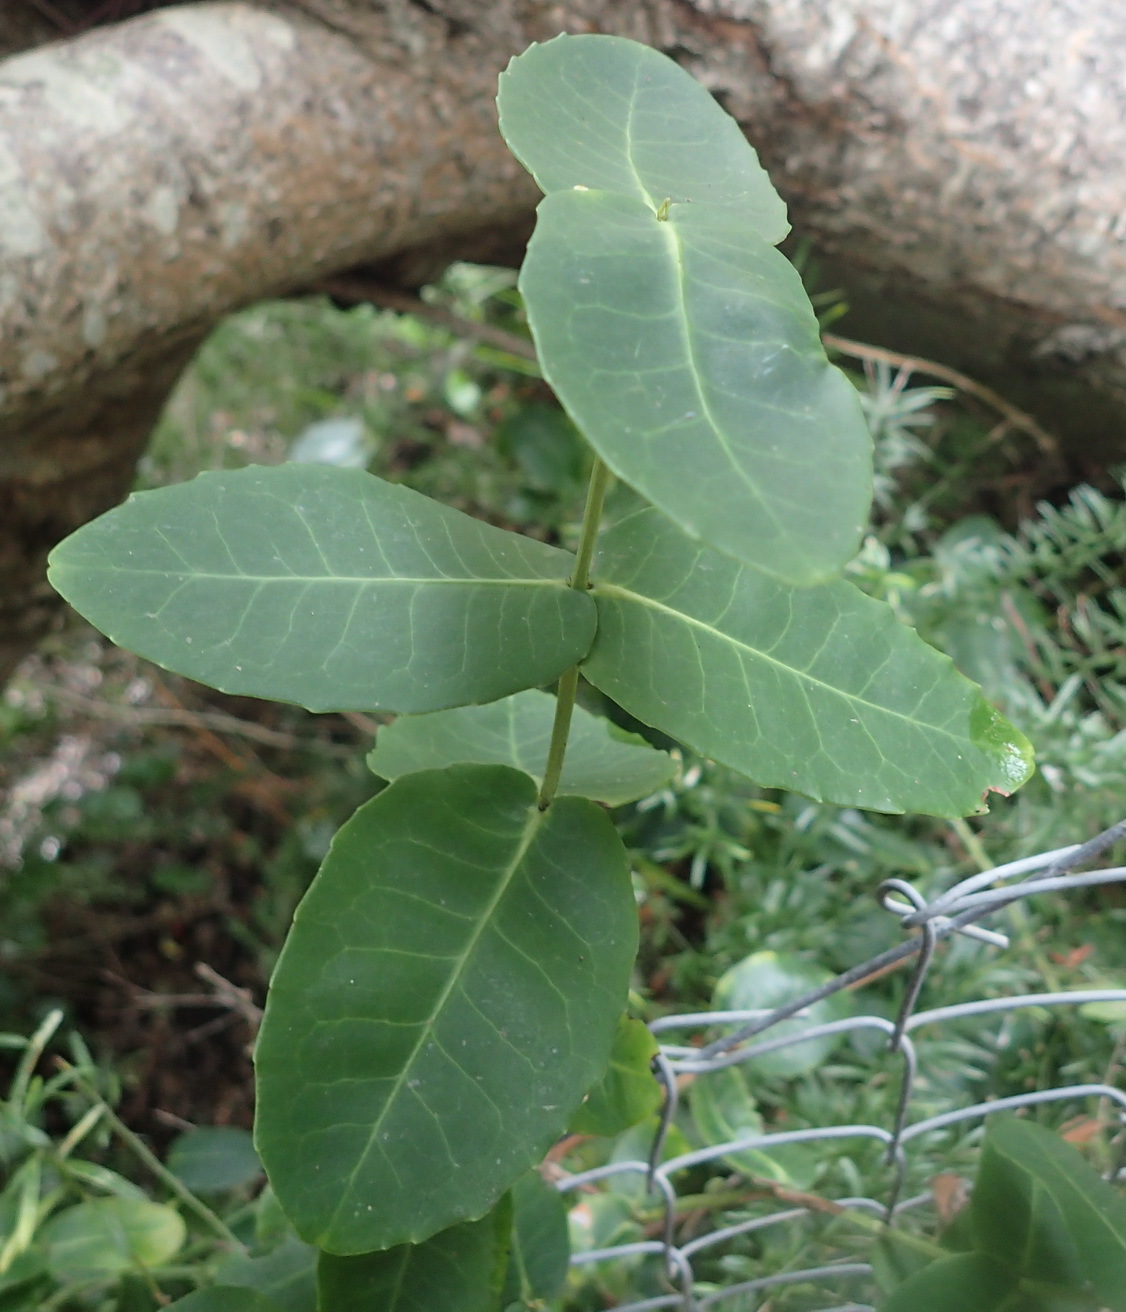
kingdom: Plantae
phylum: Tracheophyta
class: Magnoliopsida
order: Celastrales
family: Celastraceae
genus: Lauridia
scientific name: Lauridia tetragona
